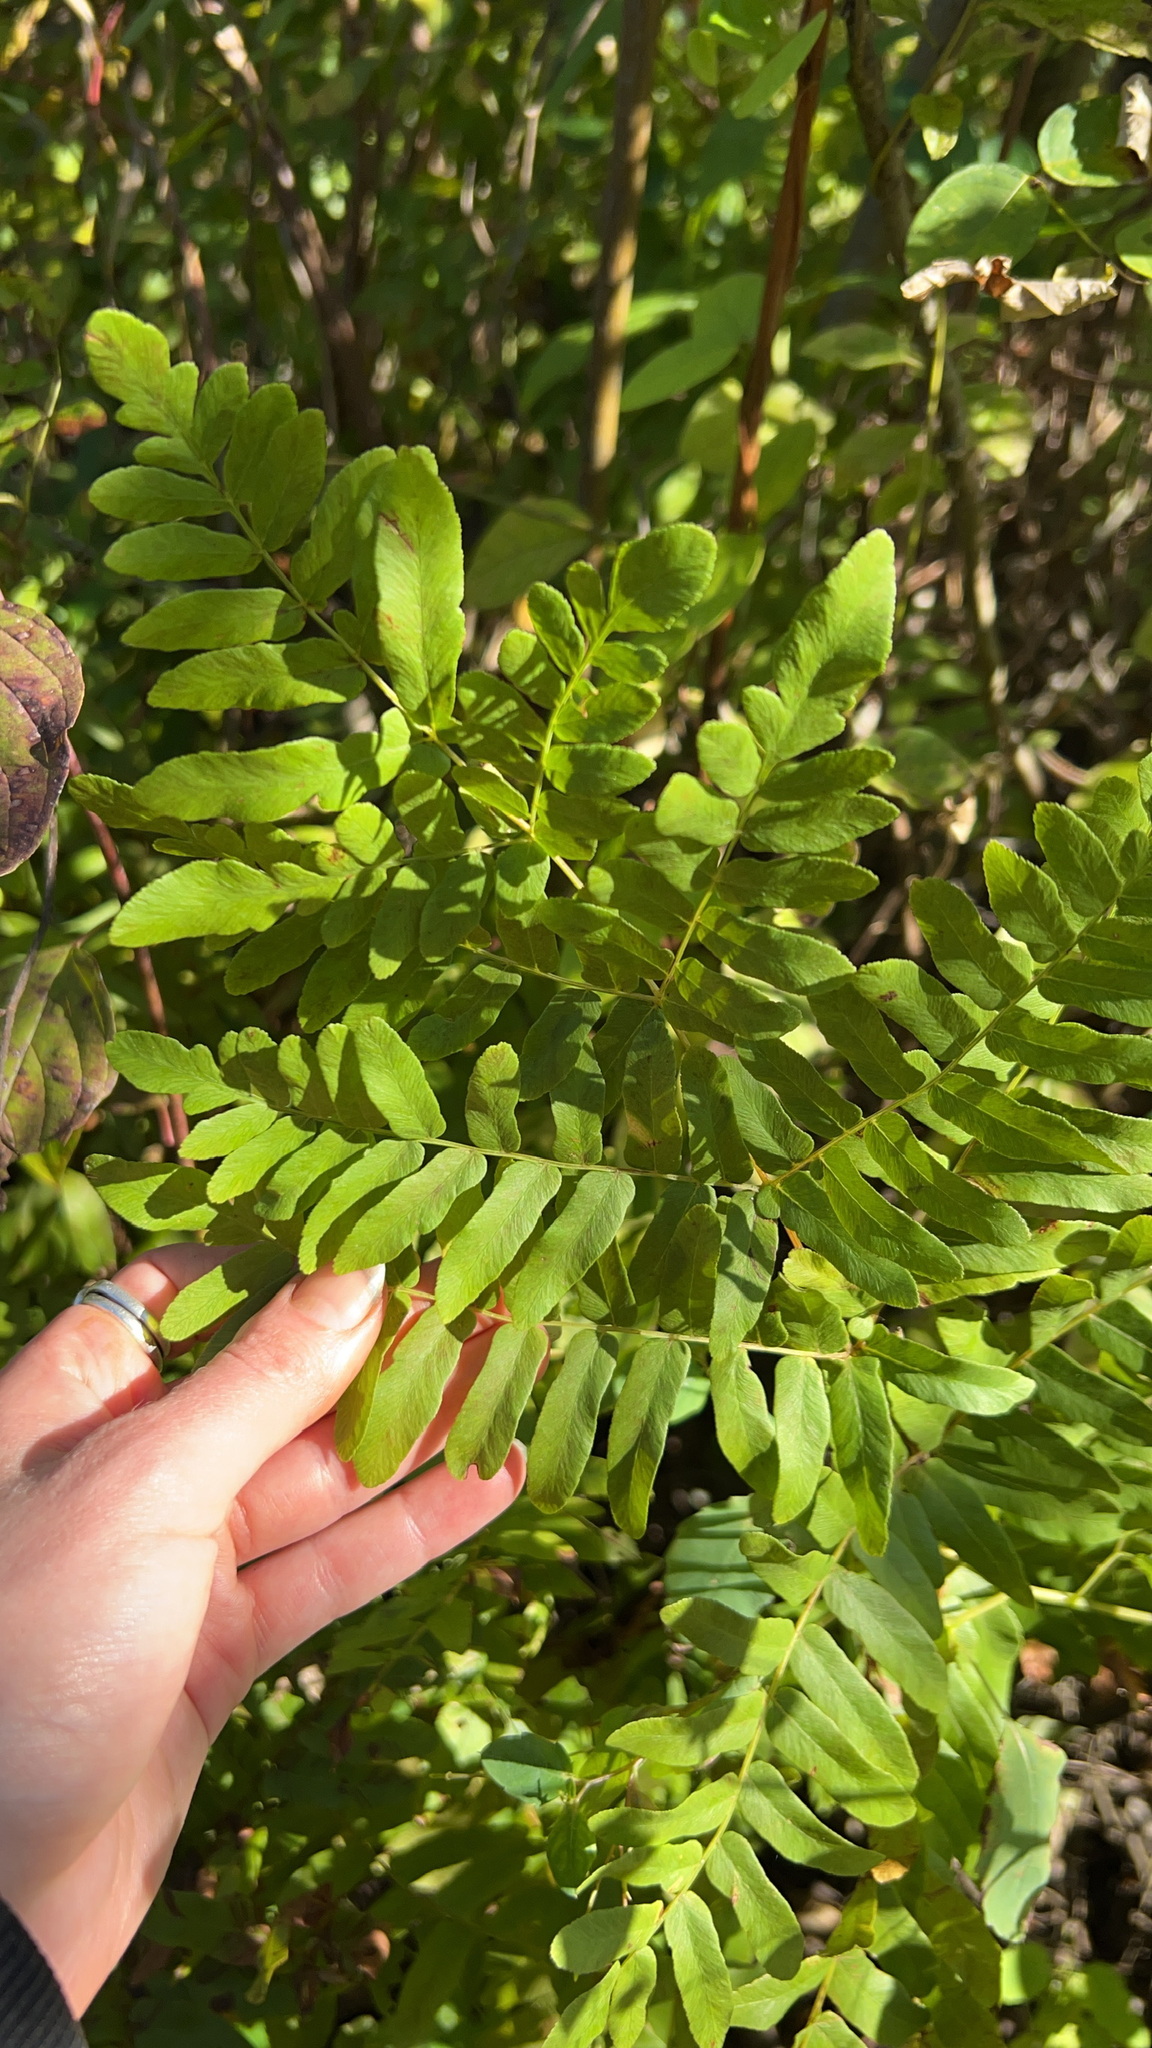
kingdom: Plantae
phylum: Tracheophyta
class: Polypodiopsida
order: Osmundales
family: Osmundaceae
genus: Osmunda
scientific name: Osmunda spectabilis
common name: American royal fern
